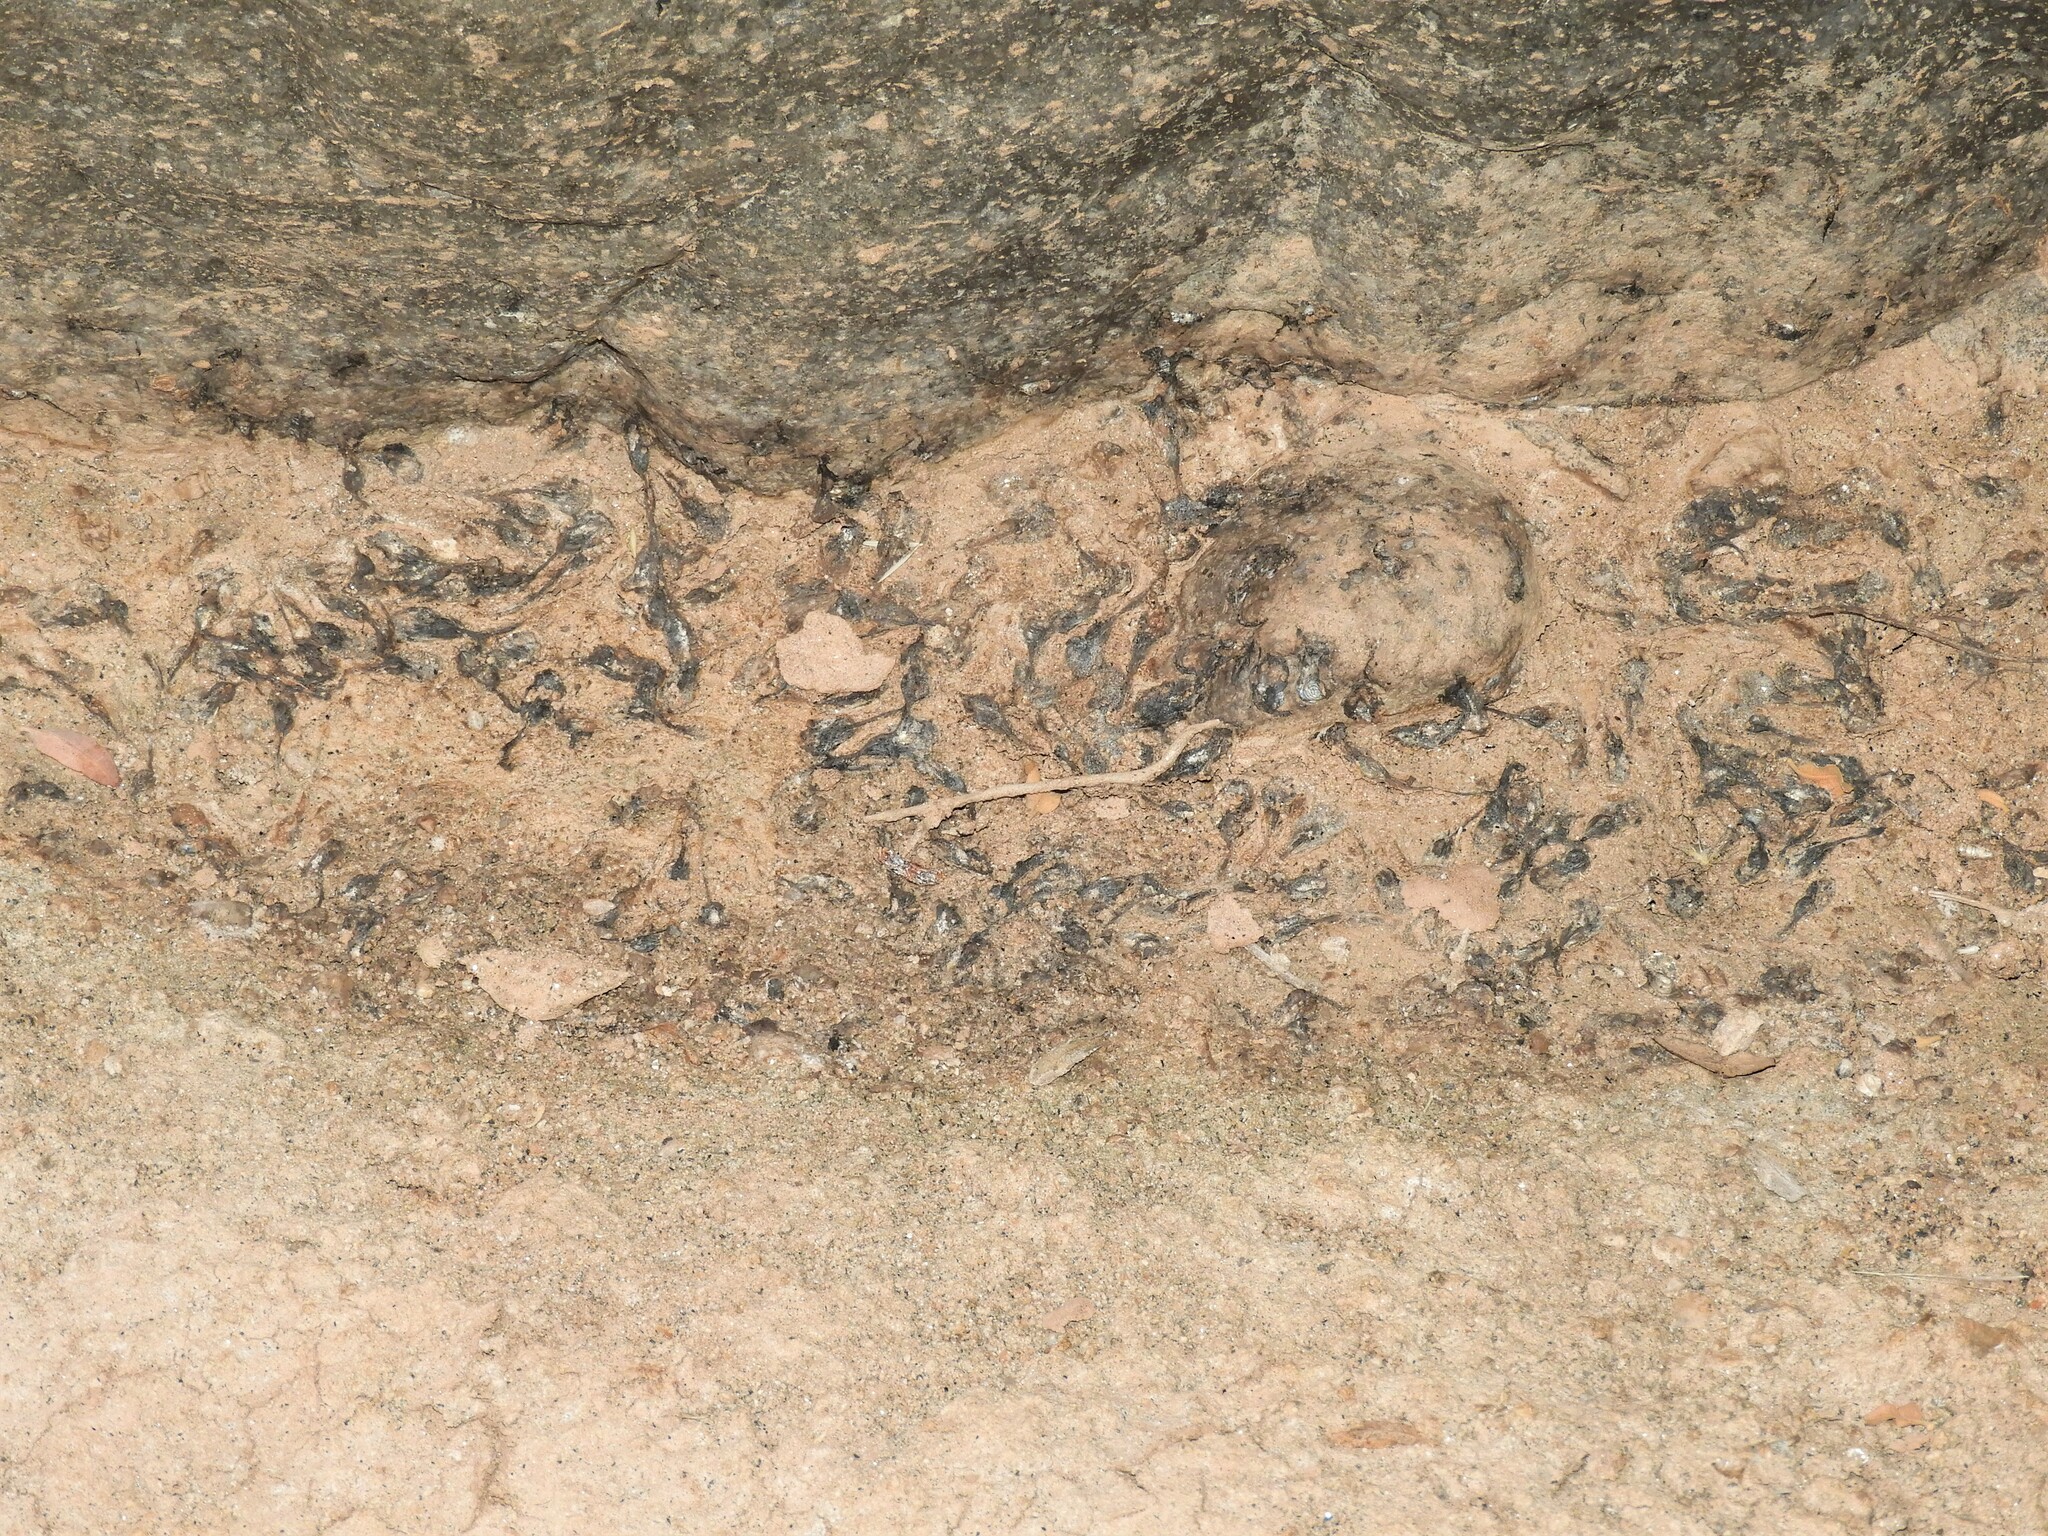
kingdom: Animalia
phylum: Chordata
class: Amphibia
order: Anura
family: Microhylidae
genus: Phrynomantis
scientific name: Phrynomantis annectens
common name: Marbled rubber frog
